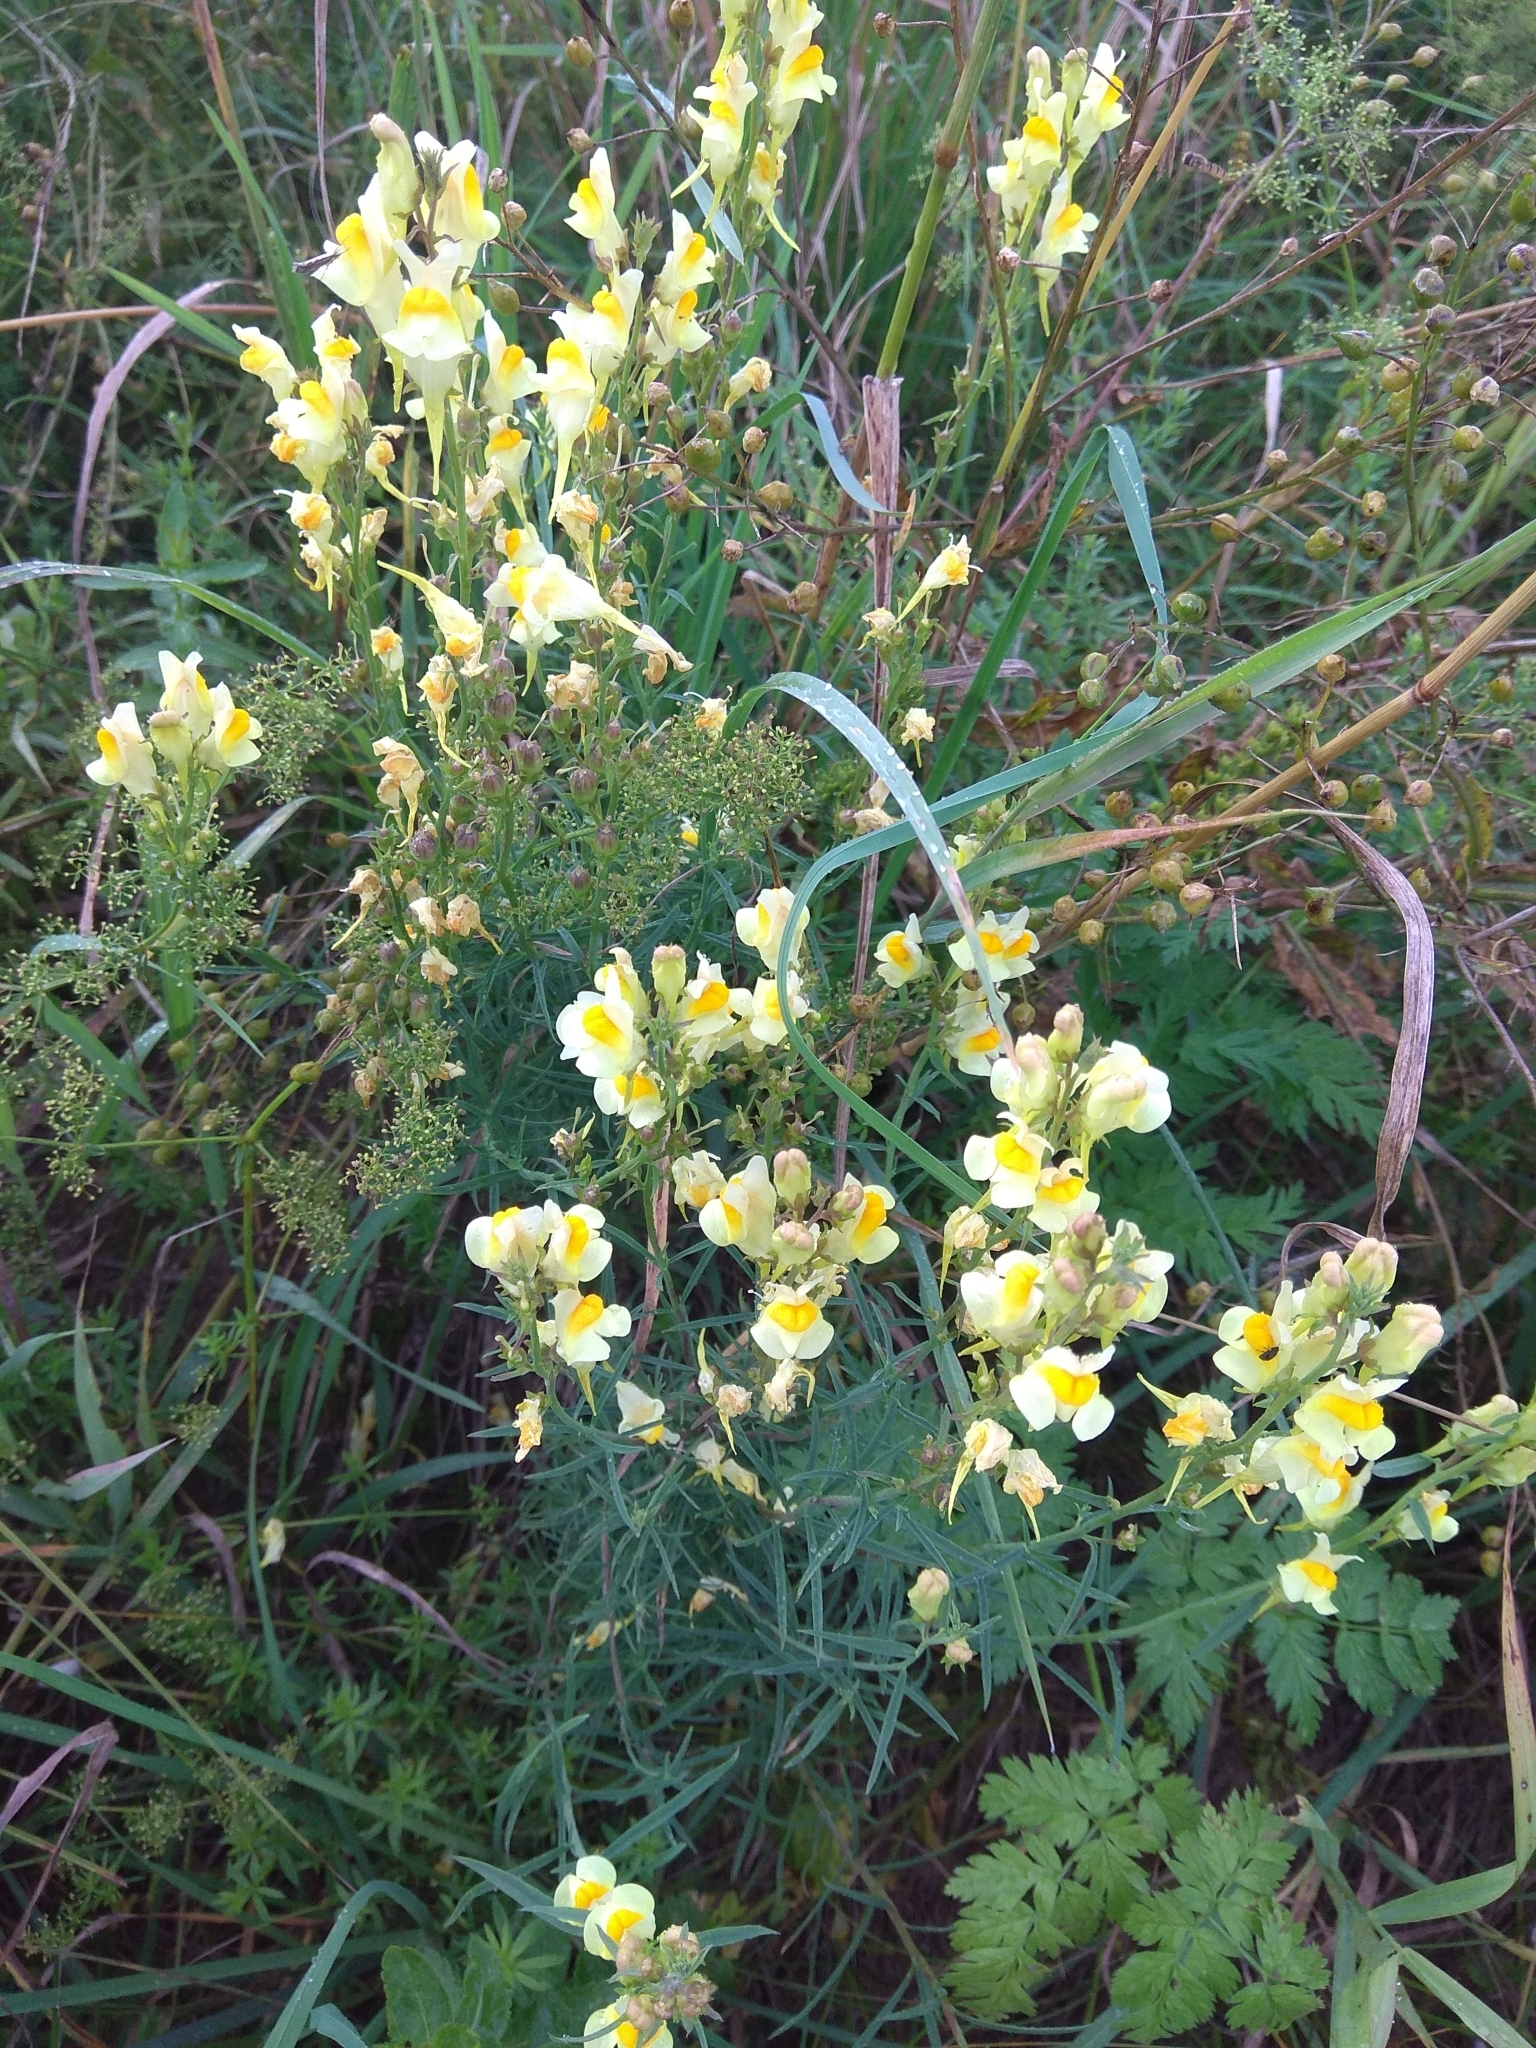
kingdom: Plantae
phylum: Tracheophyta
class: Magnoliopsida
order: Lamiales
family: Plantaginaceae
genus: Linaria
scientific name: Linaria vulgaris
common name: Butter and eggs
